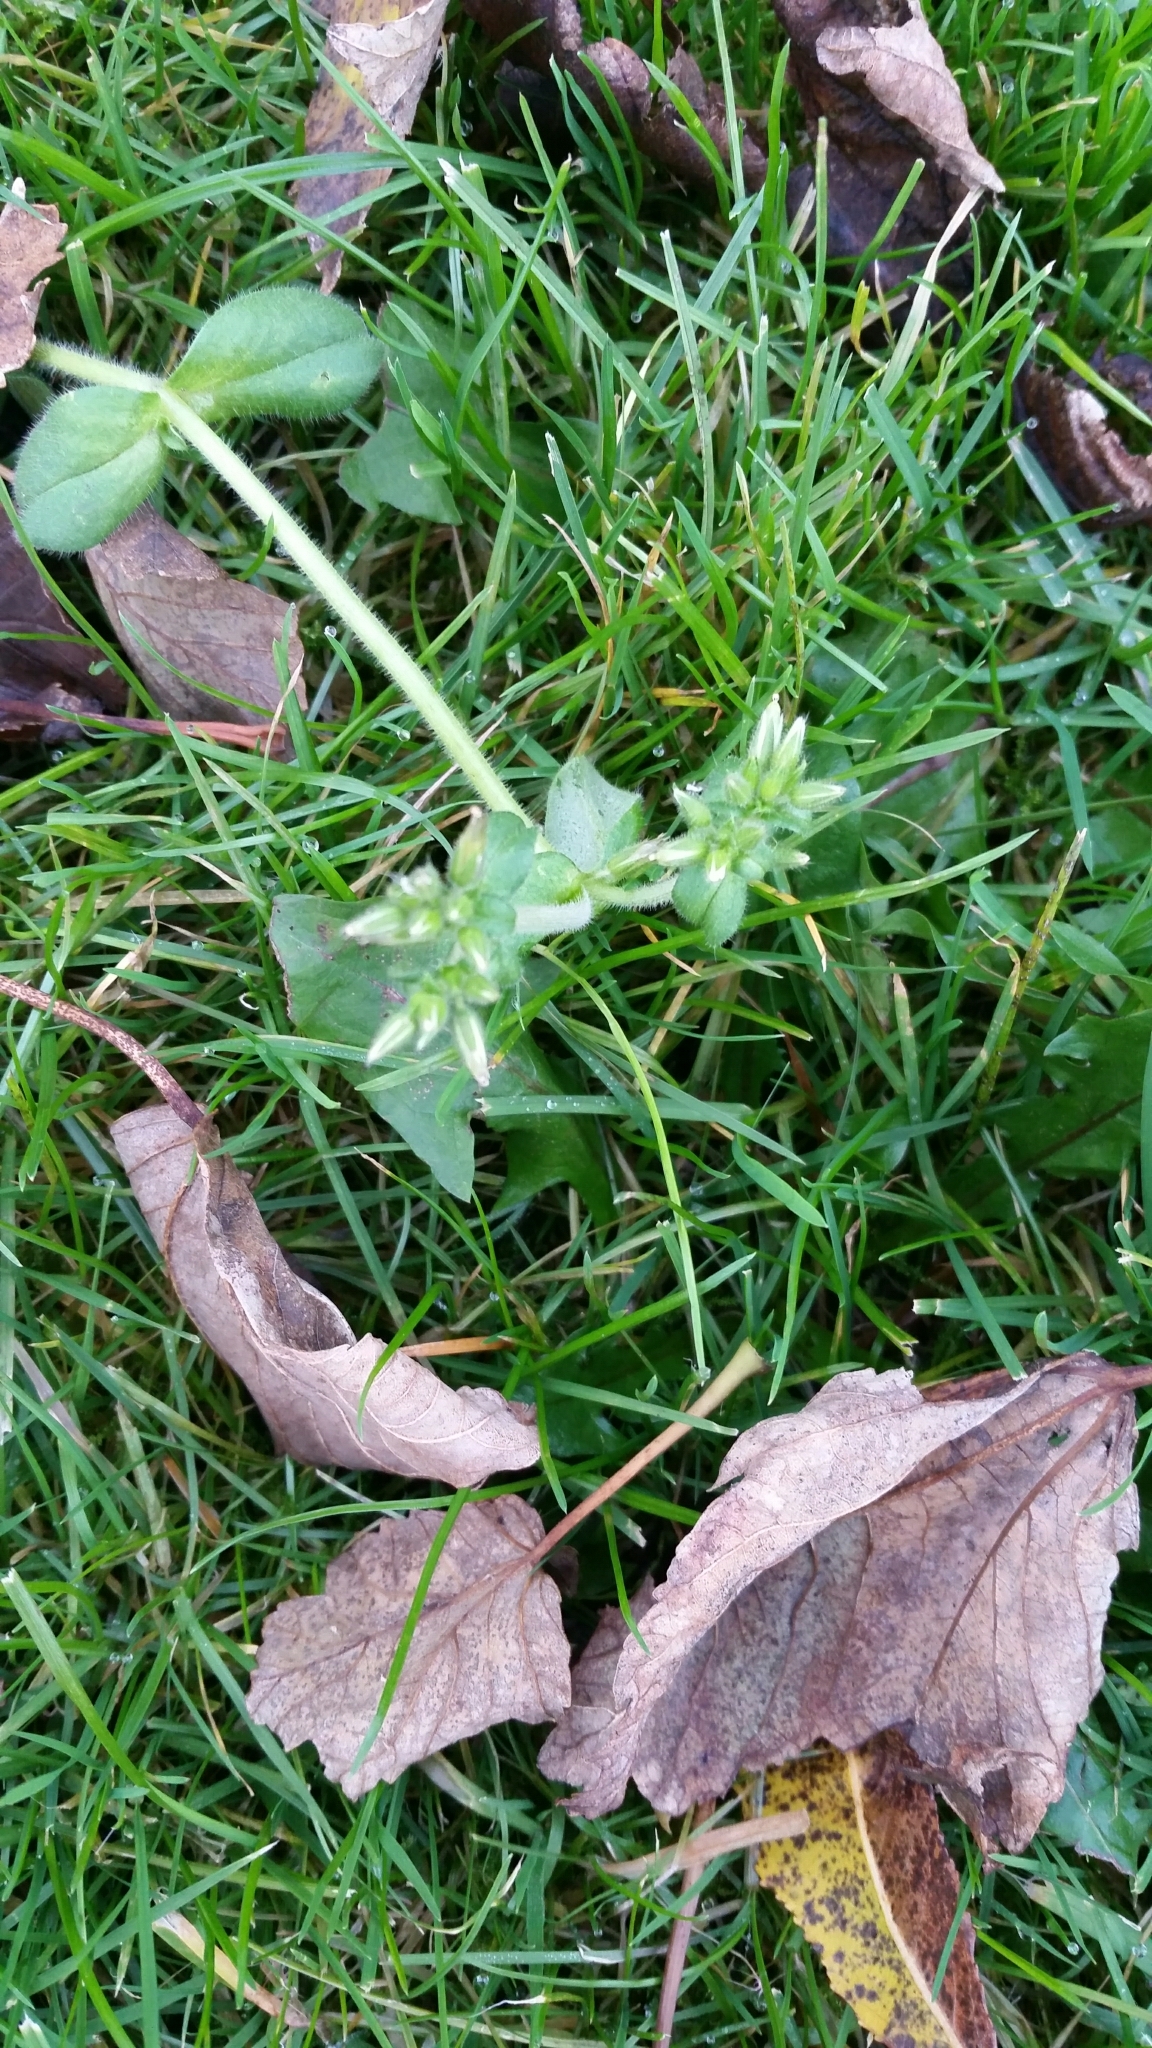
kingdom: Plantae
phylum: Tracheophyta
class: Magnoliopsida
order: Caryophyllales
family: Caryophyllaceae
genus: Cerastium
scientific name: Cerastium glomeratum
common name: Sticky chickweed
